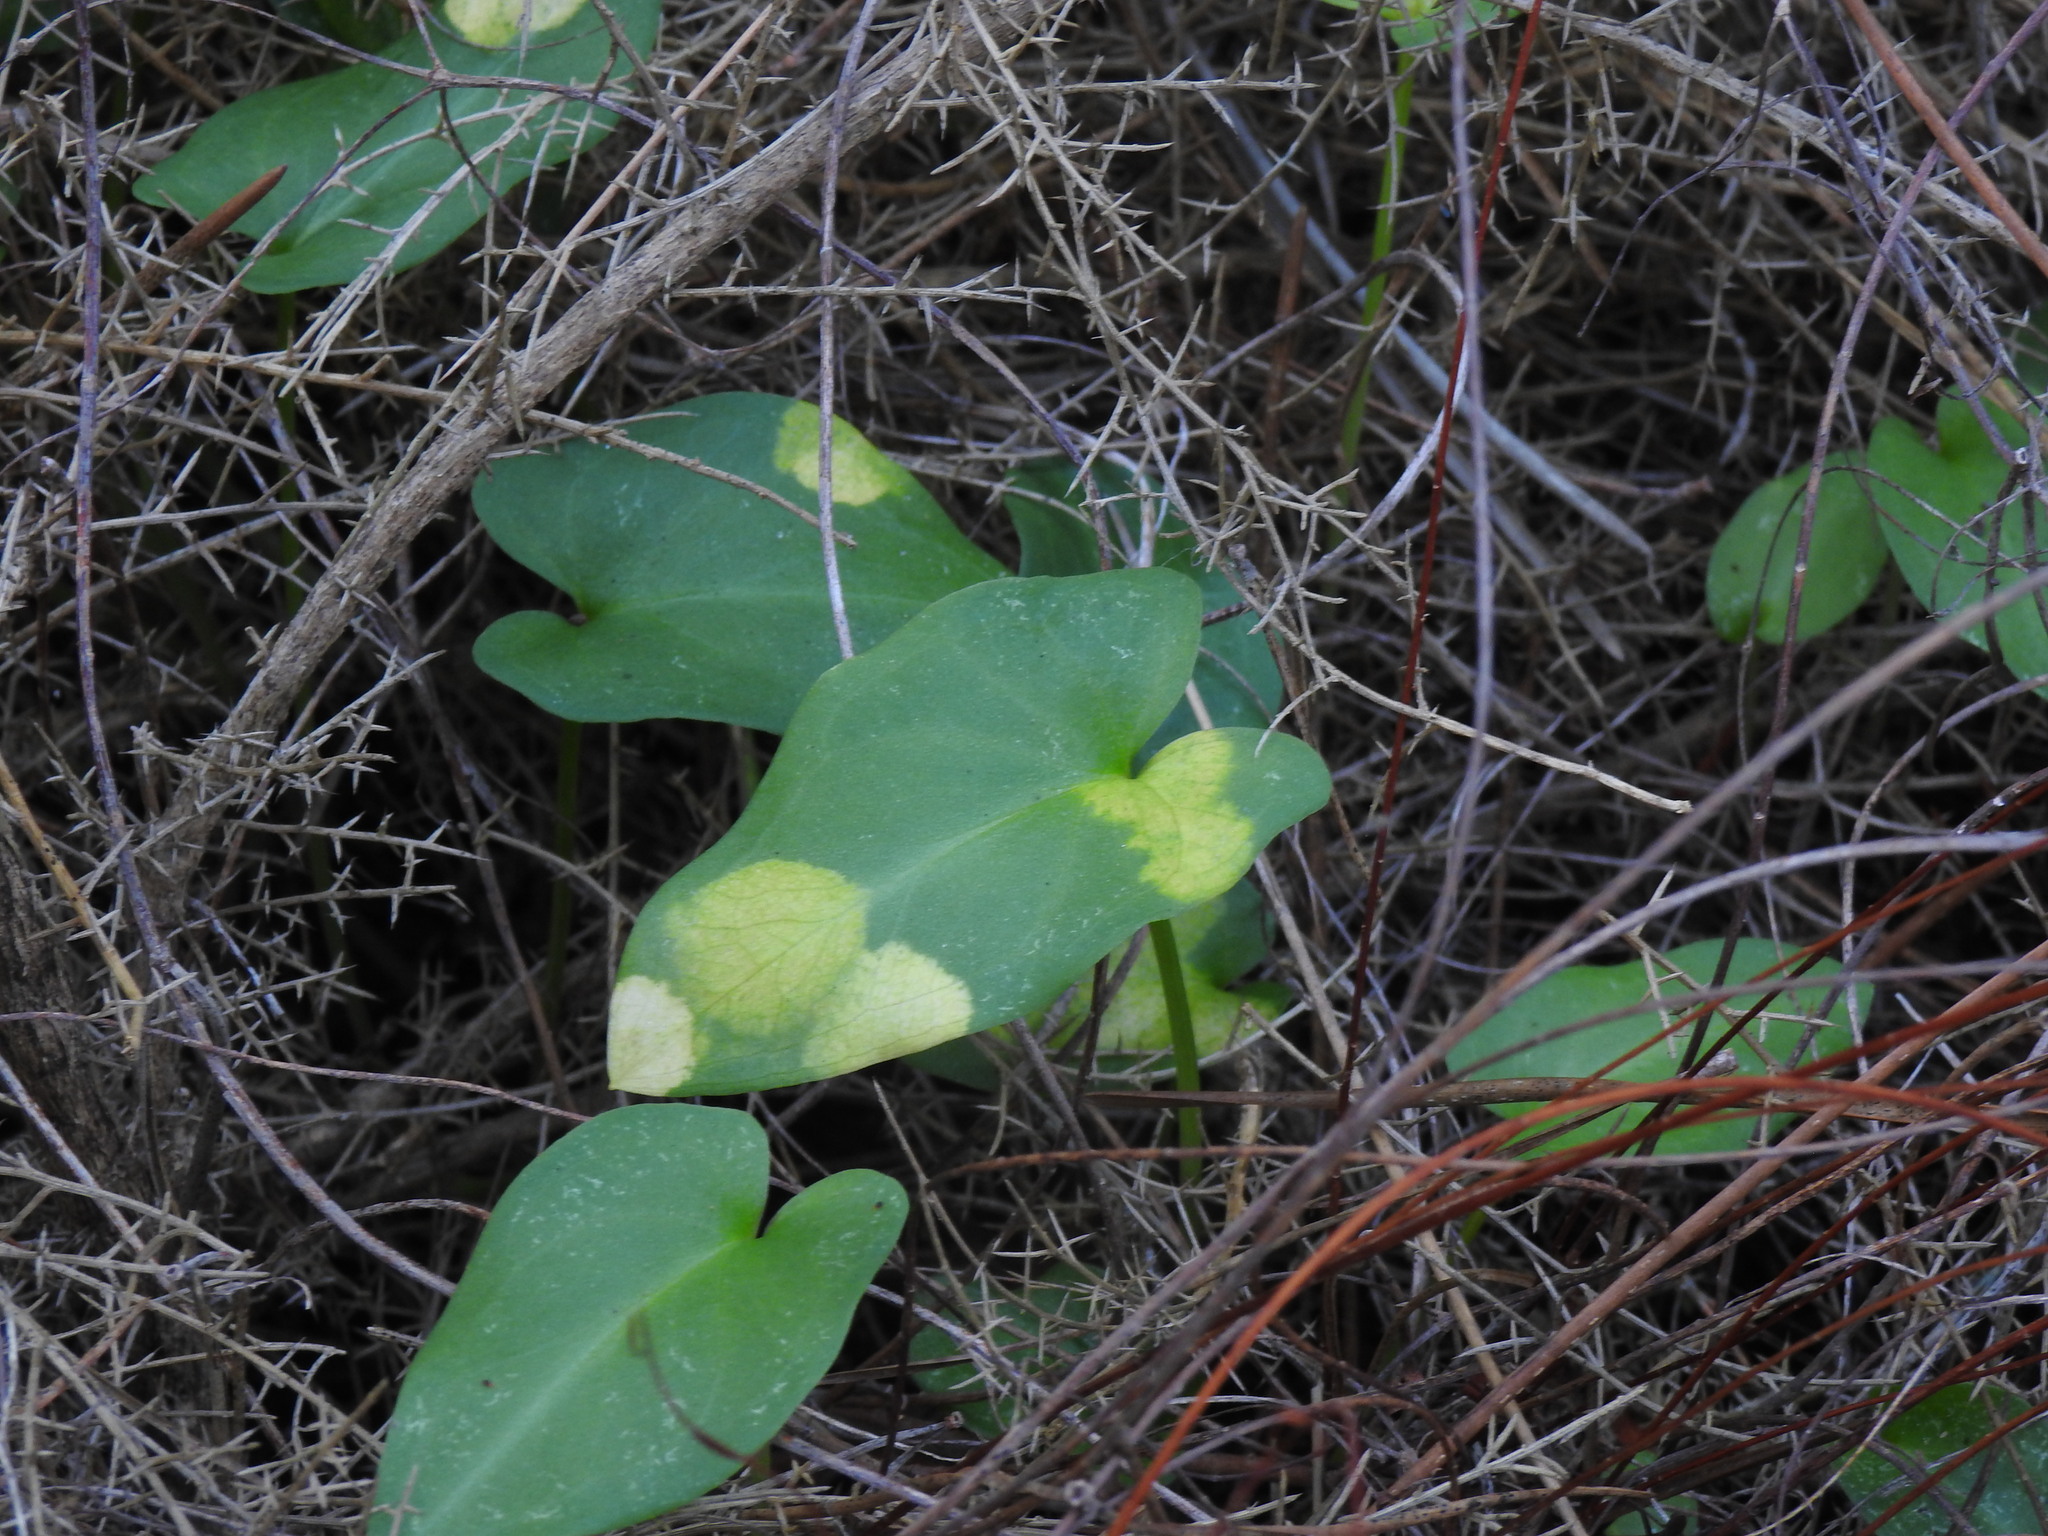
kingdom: Chromista
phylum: Ochrophyta
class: Xanthophyceae
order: Phyllosiphonales
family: Phyllosiphonaceae
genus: Phyllosiphon
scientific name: Phyllosiphon arisari
